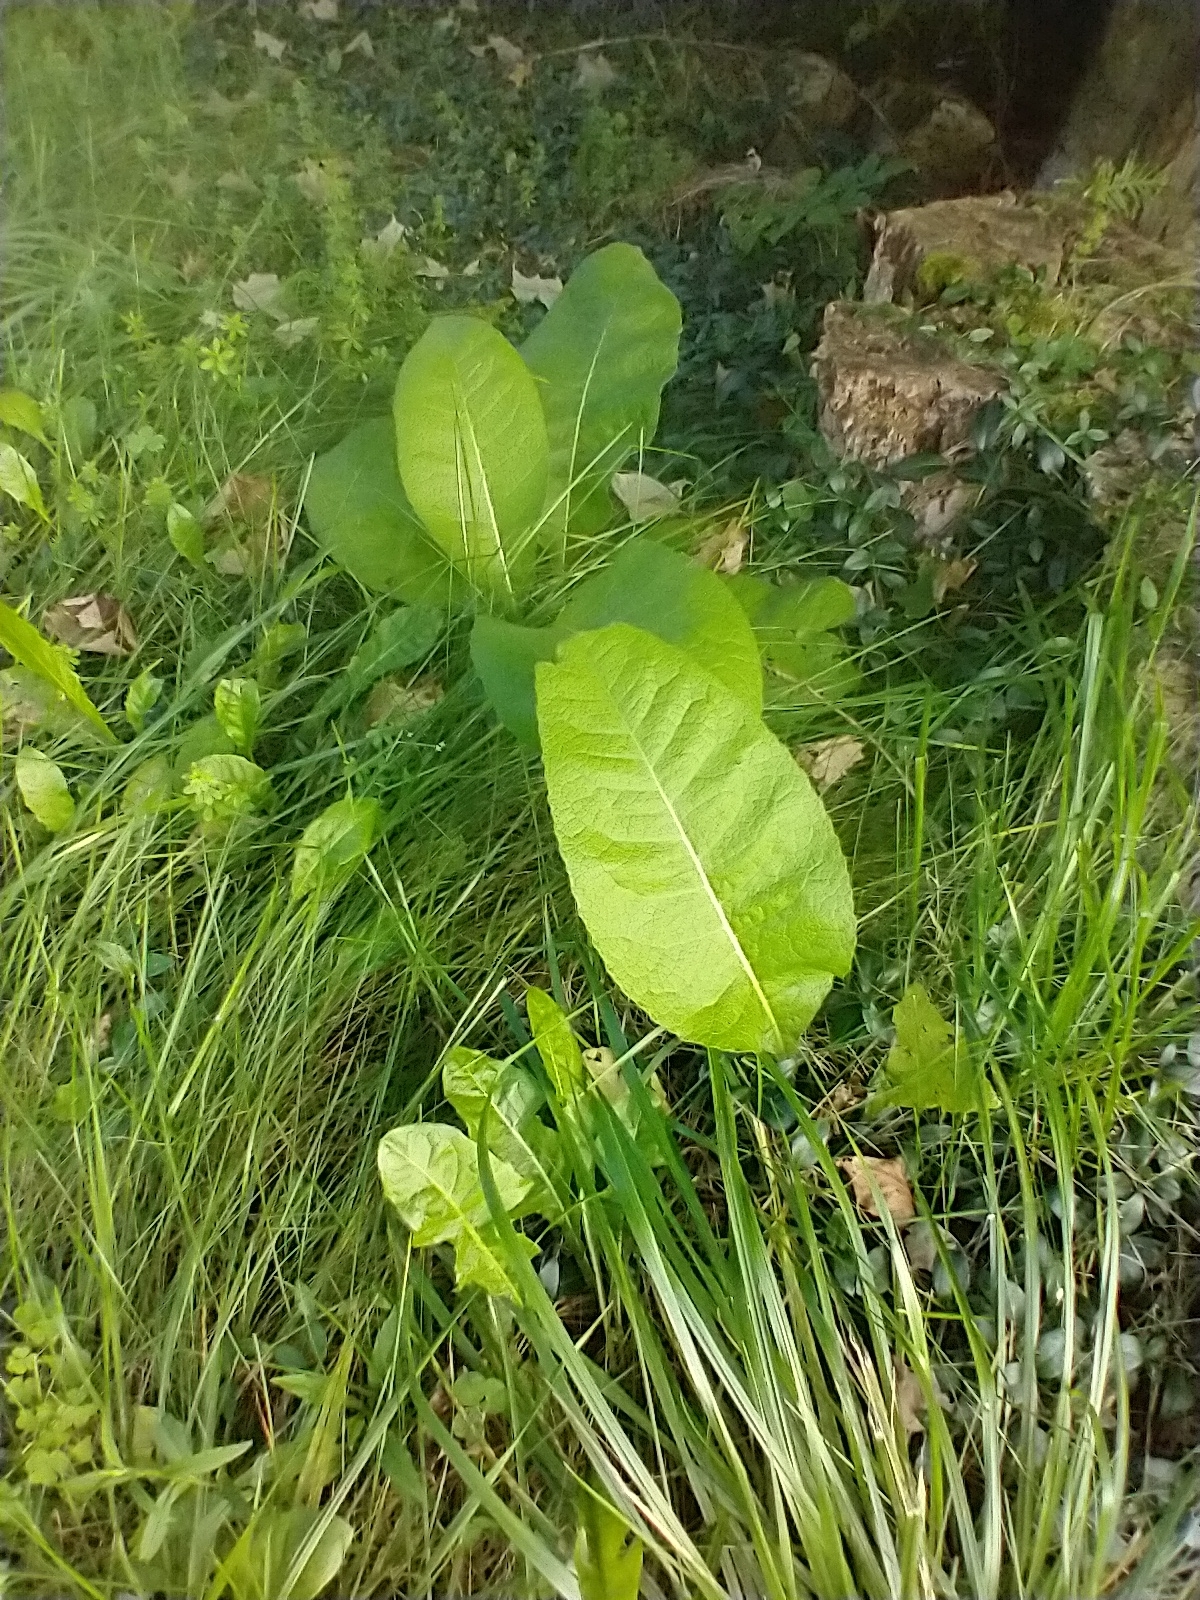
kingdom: Plantae
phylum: Tracheophyta
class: Magnoliopsida
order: Asterales
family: Asteraceae
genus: Inula
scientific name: Inula racemosa
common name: Indian elecampane
